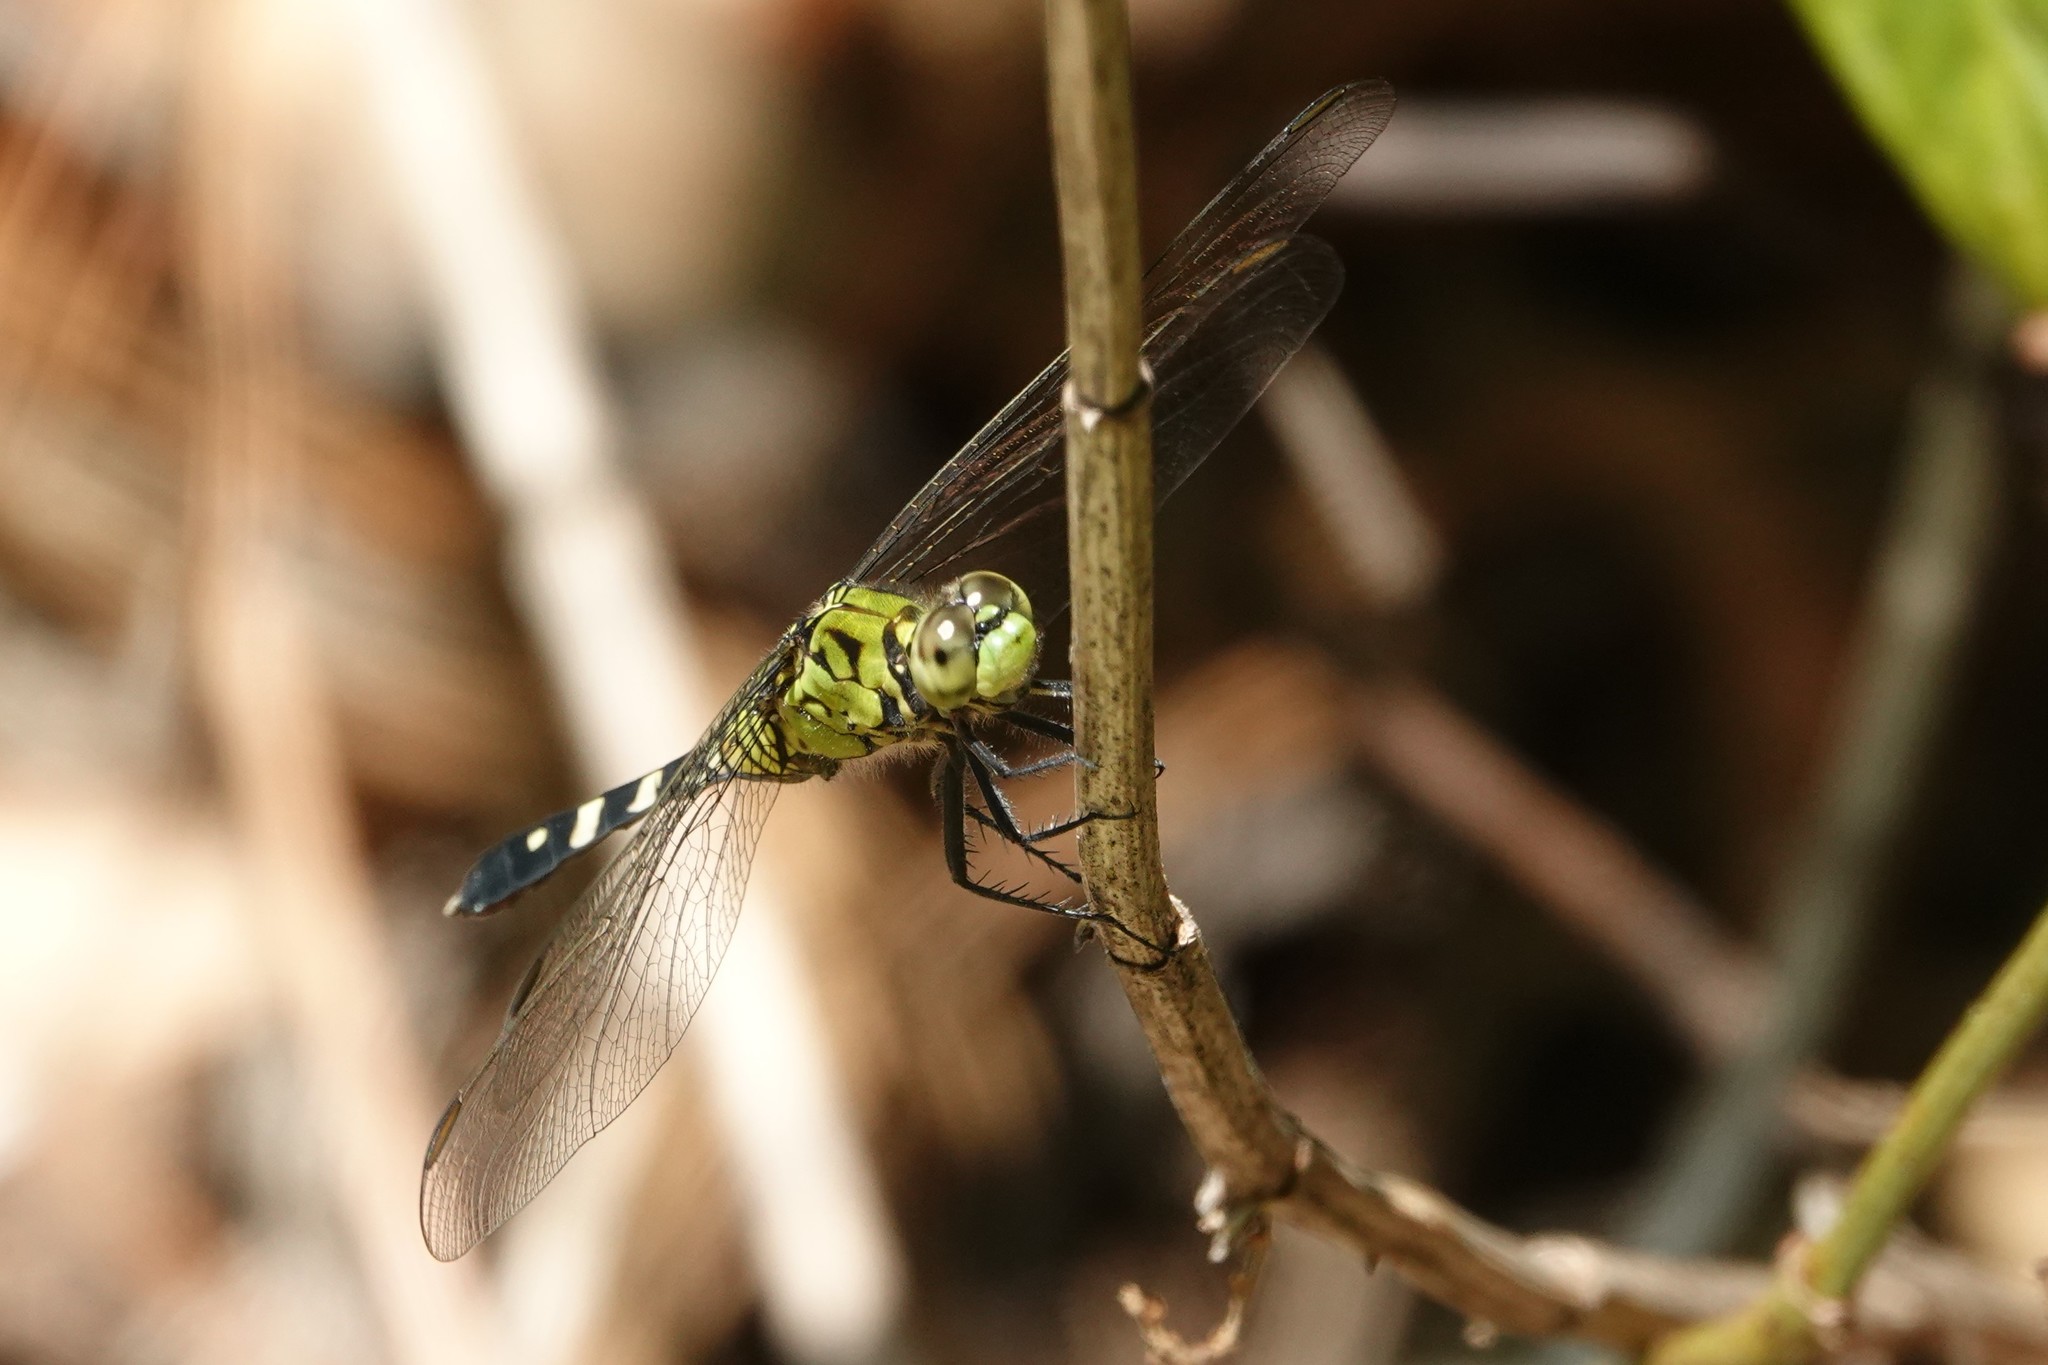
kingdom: Animalia
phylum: Arthropoda
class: Insecta
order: Odonata
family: Libellulidae
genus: Erythemis
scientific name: Erythemis simplicicollis
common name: Eastern pondhawk
